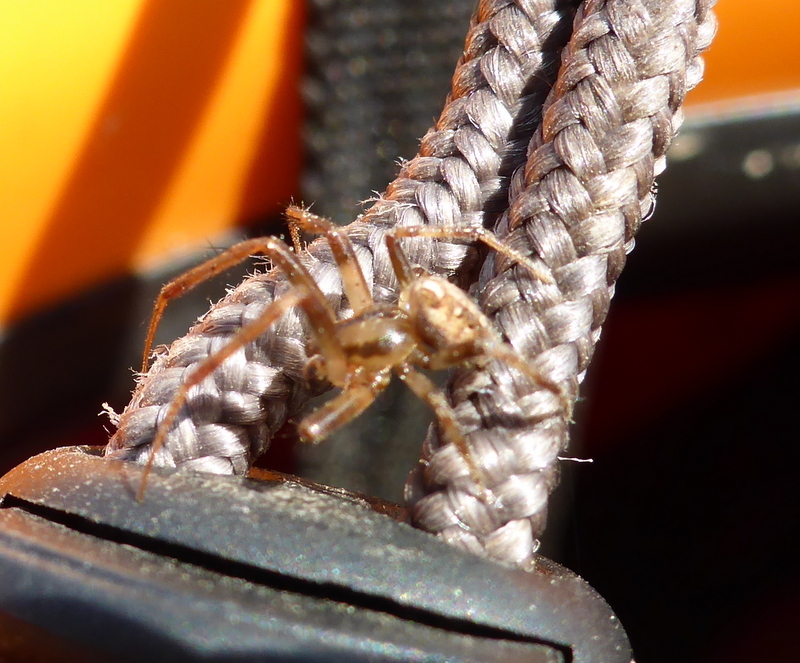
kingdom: Animalia
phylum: Arthropoda
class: Arachnida
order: Araneae
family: Araneidae
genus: Neoscona
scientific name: Neoscona arabesca
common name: Orb weavers
